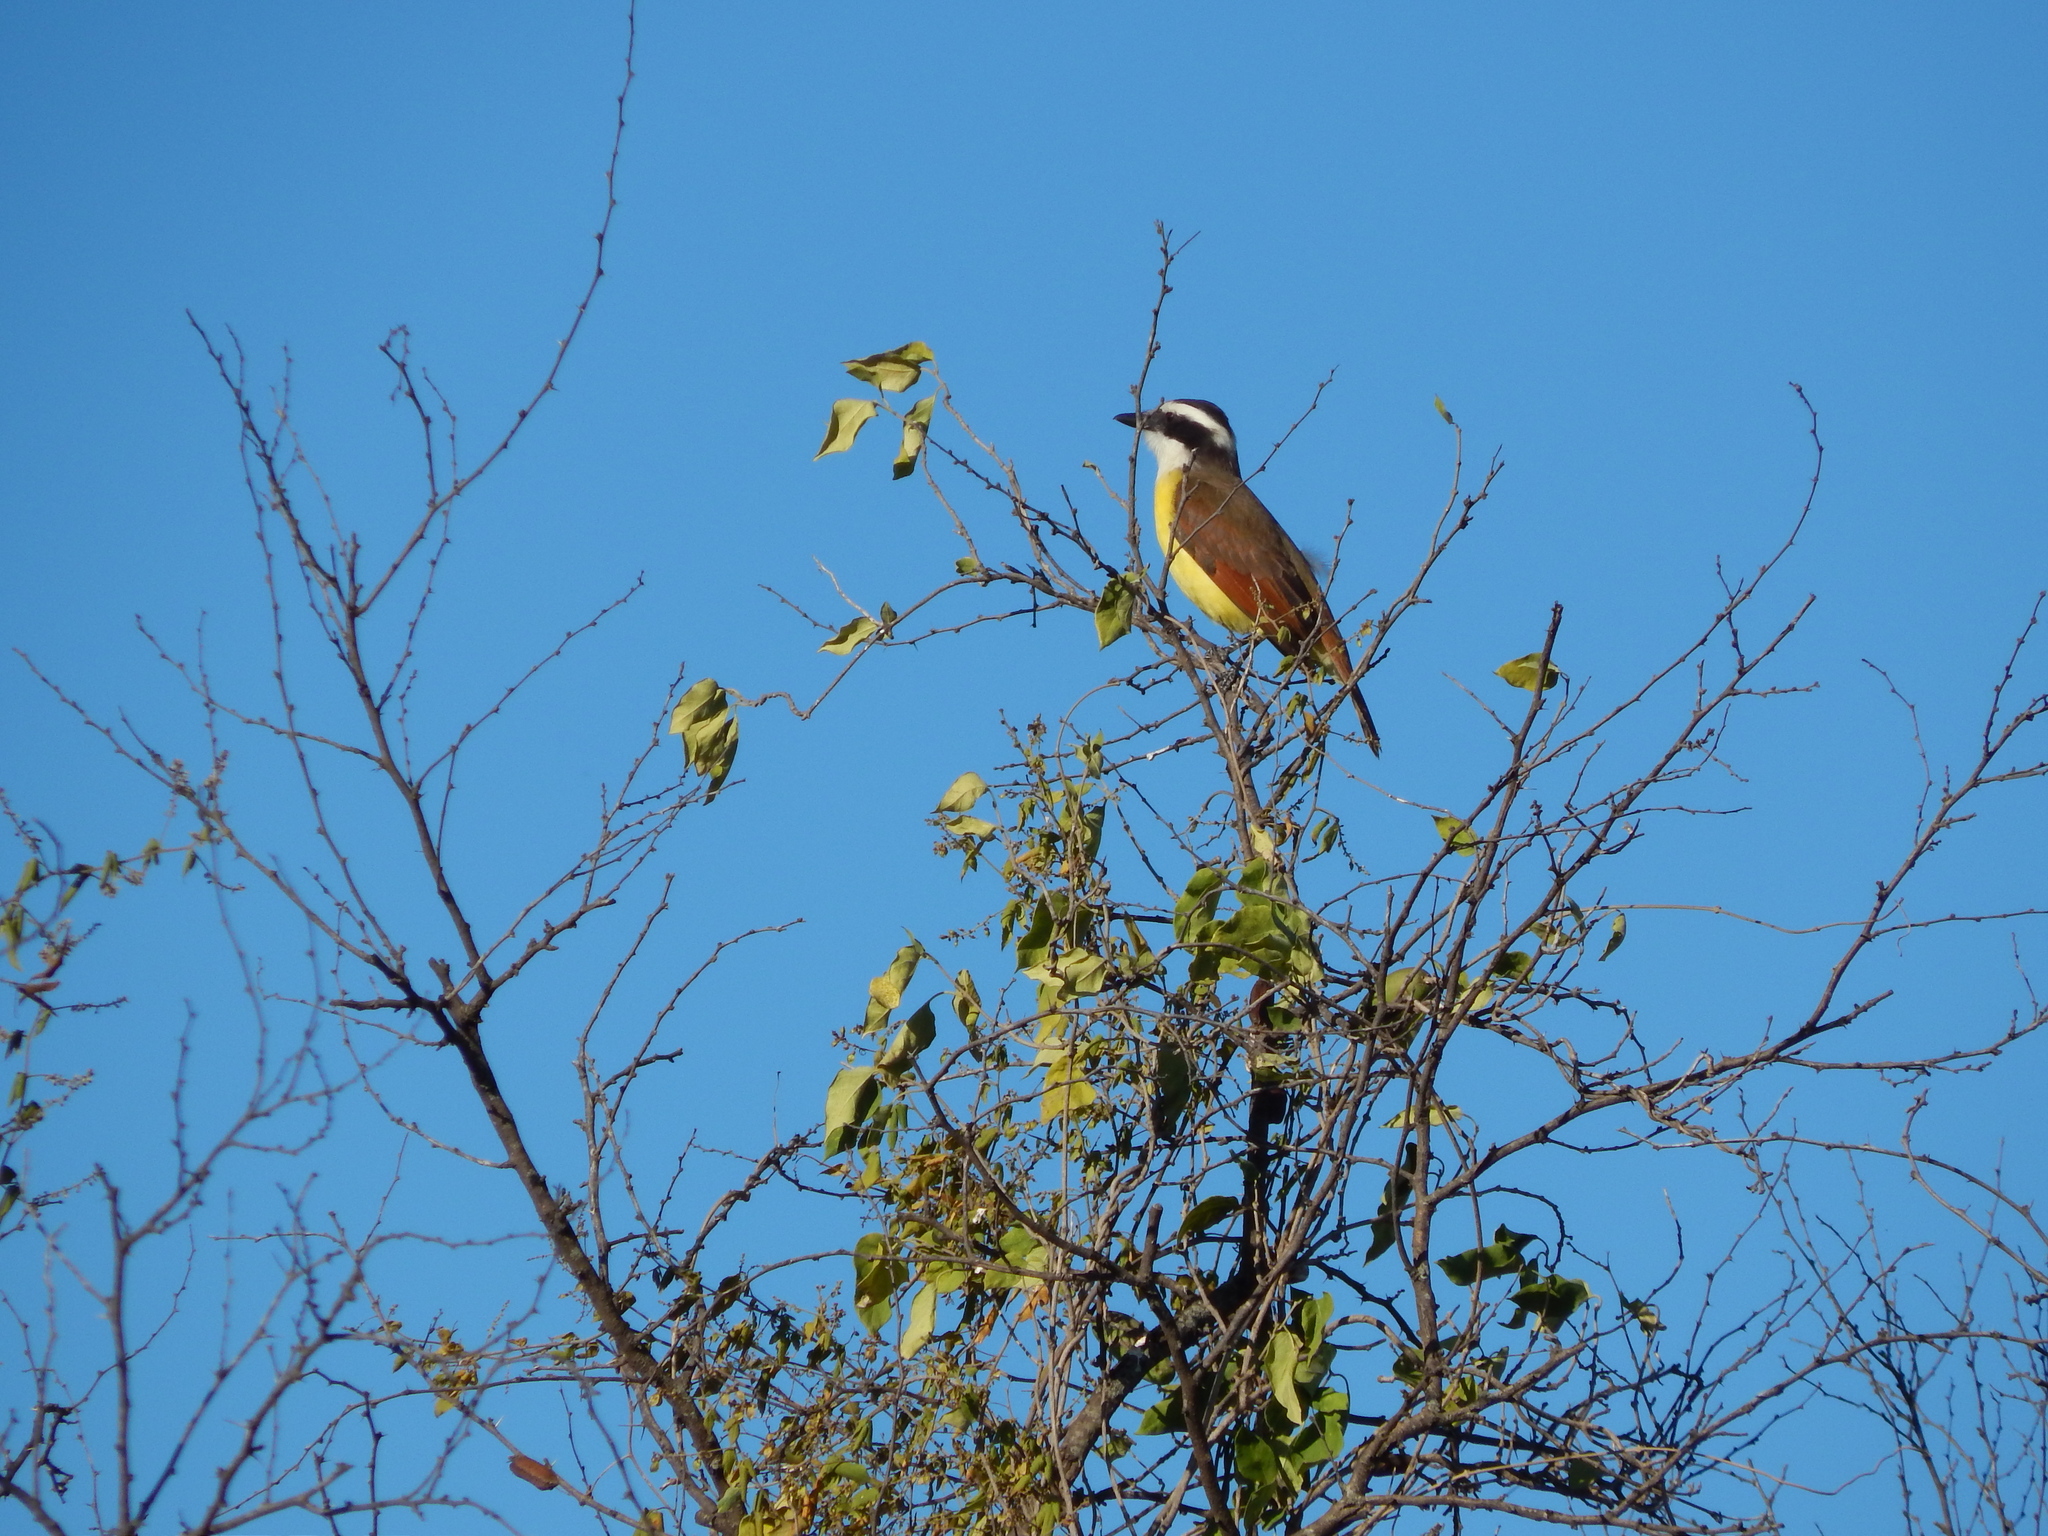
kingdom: Animalia
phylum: Chordata
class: Aves
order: Passeriformes
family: Tyrannidae
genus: Pitangus
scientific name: Pitangus sulphuratus
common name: Great kiskadee
